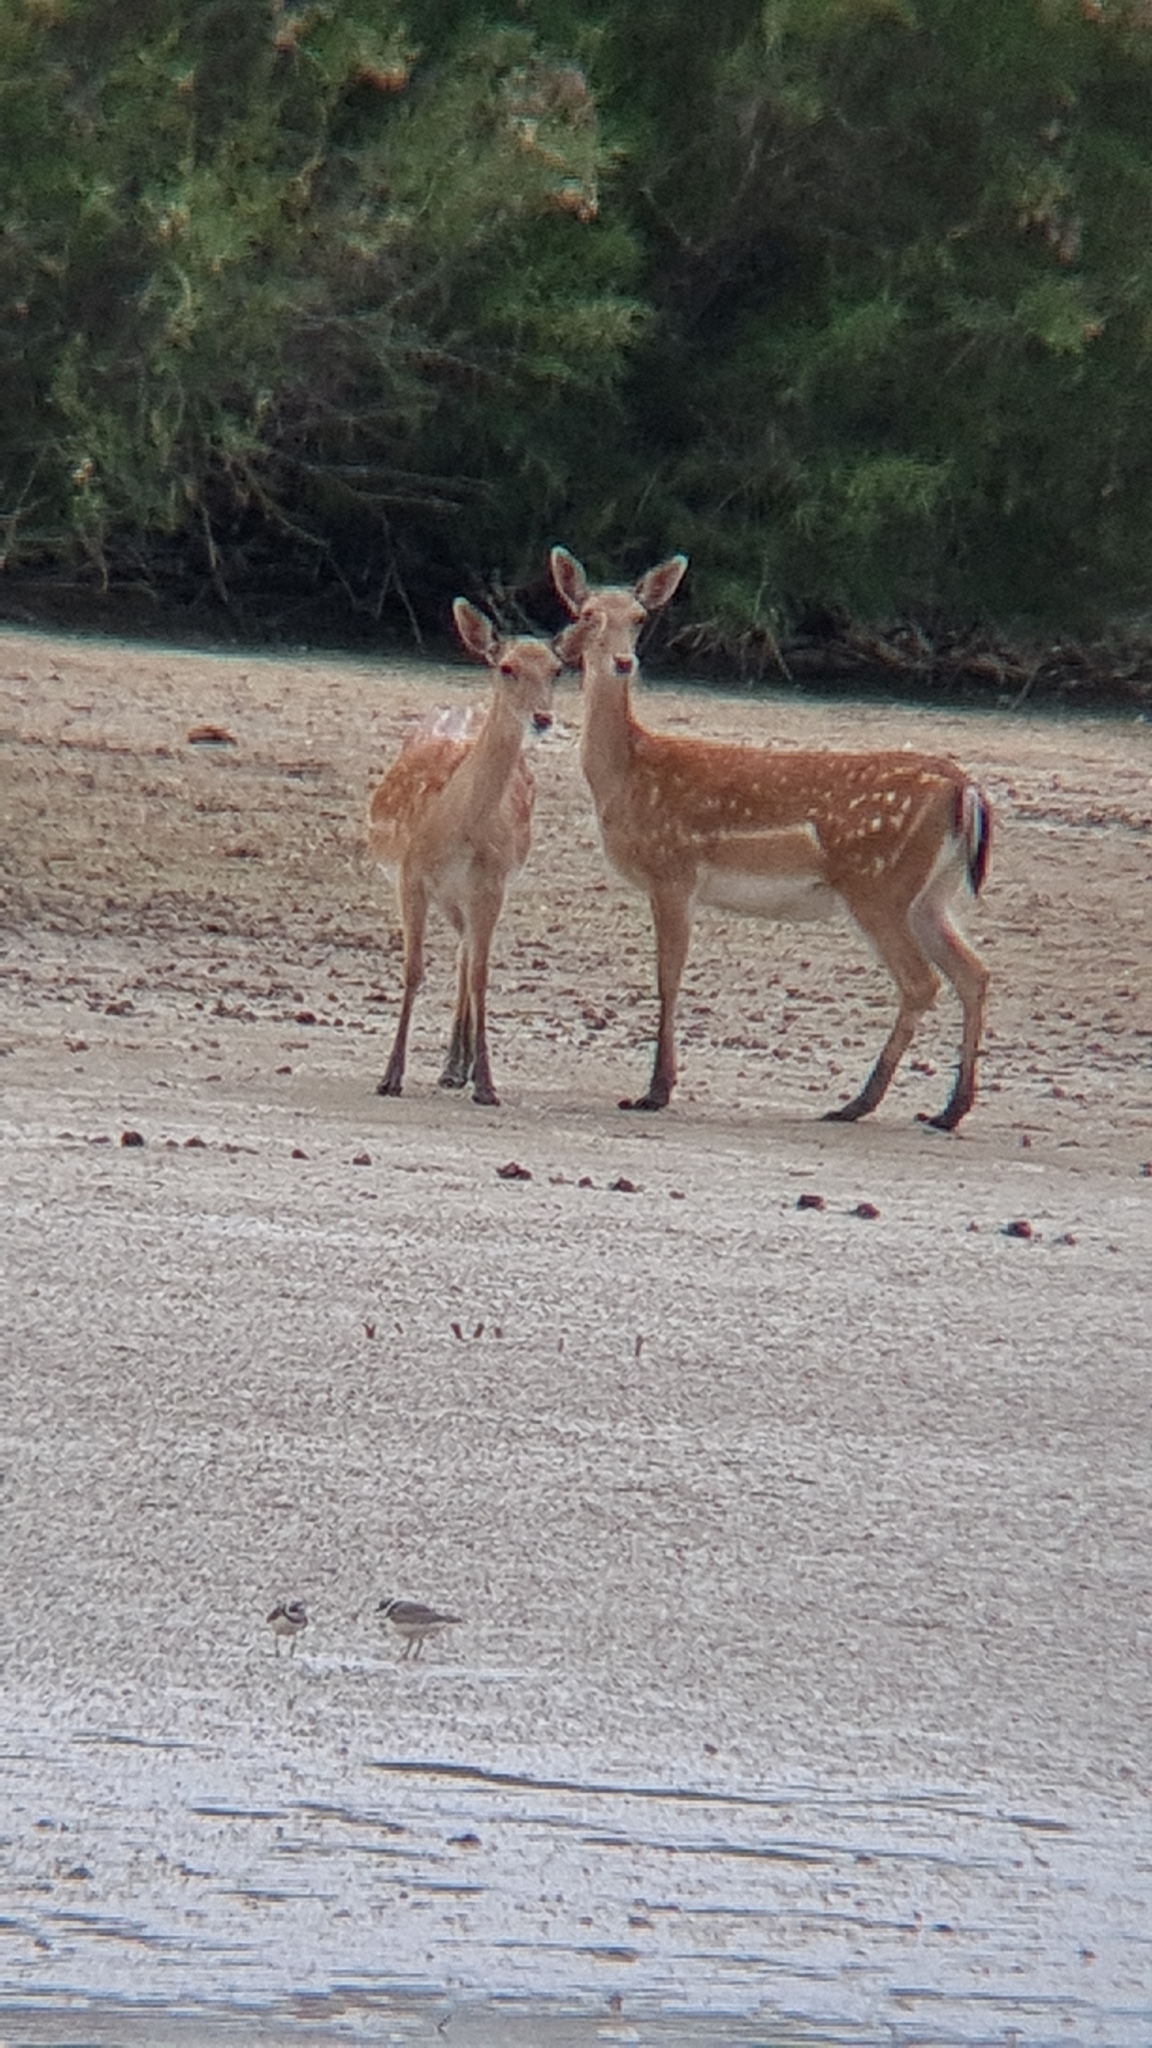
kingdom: Animalia
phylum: Chordata
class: Mammalia
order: Artiodactyla
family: Cervidae
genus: Dama
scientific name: Dama dama
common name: Fallow deer
